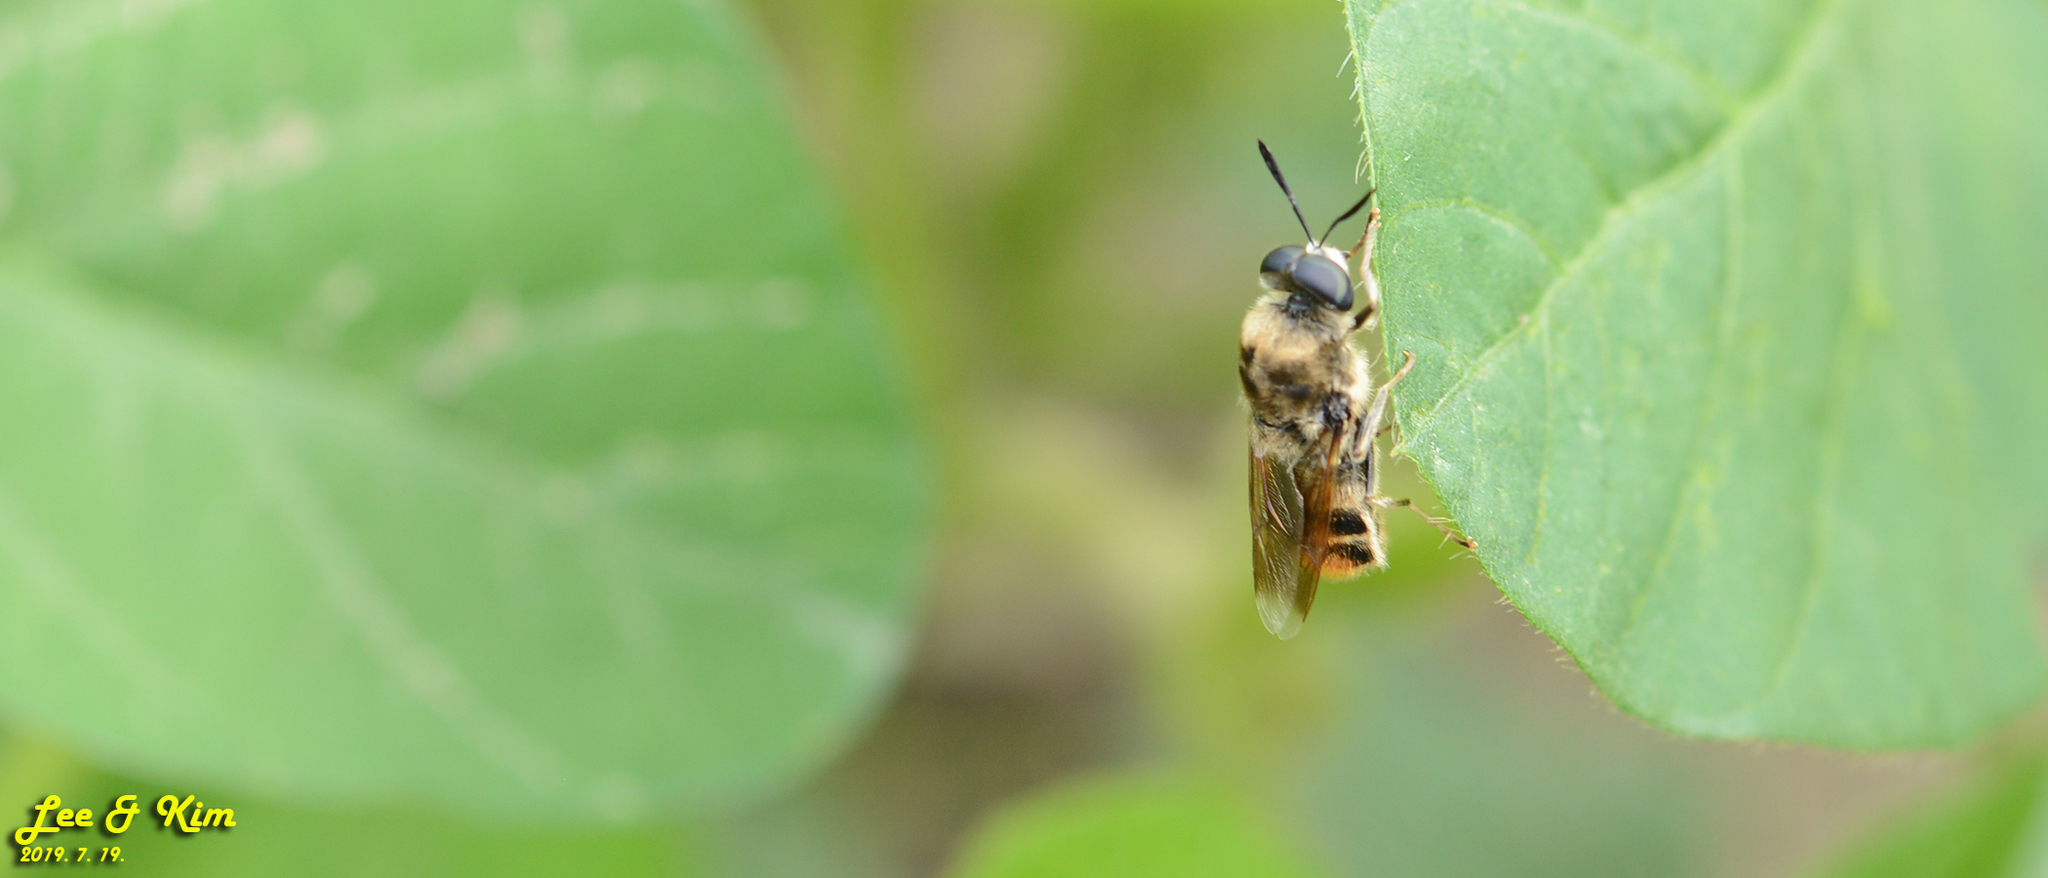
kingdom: Animalia
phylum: Arthropoda
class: Insecta
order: Diptera
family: Stratiomyidae
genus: Stratiomys
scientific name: Stratiomys longicornis
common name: Long-horned general
